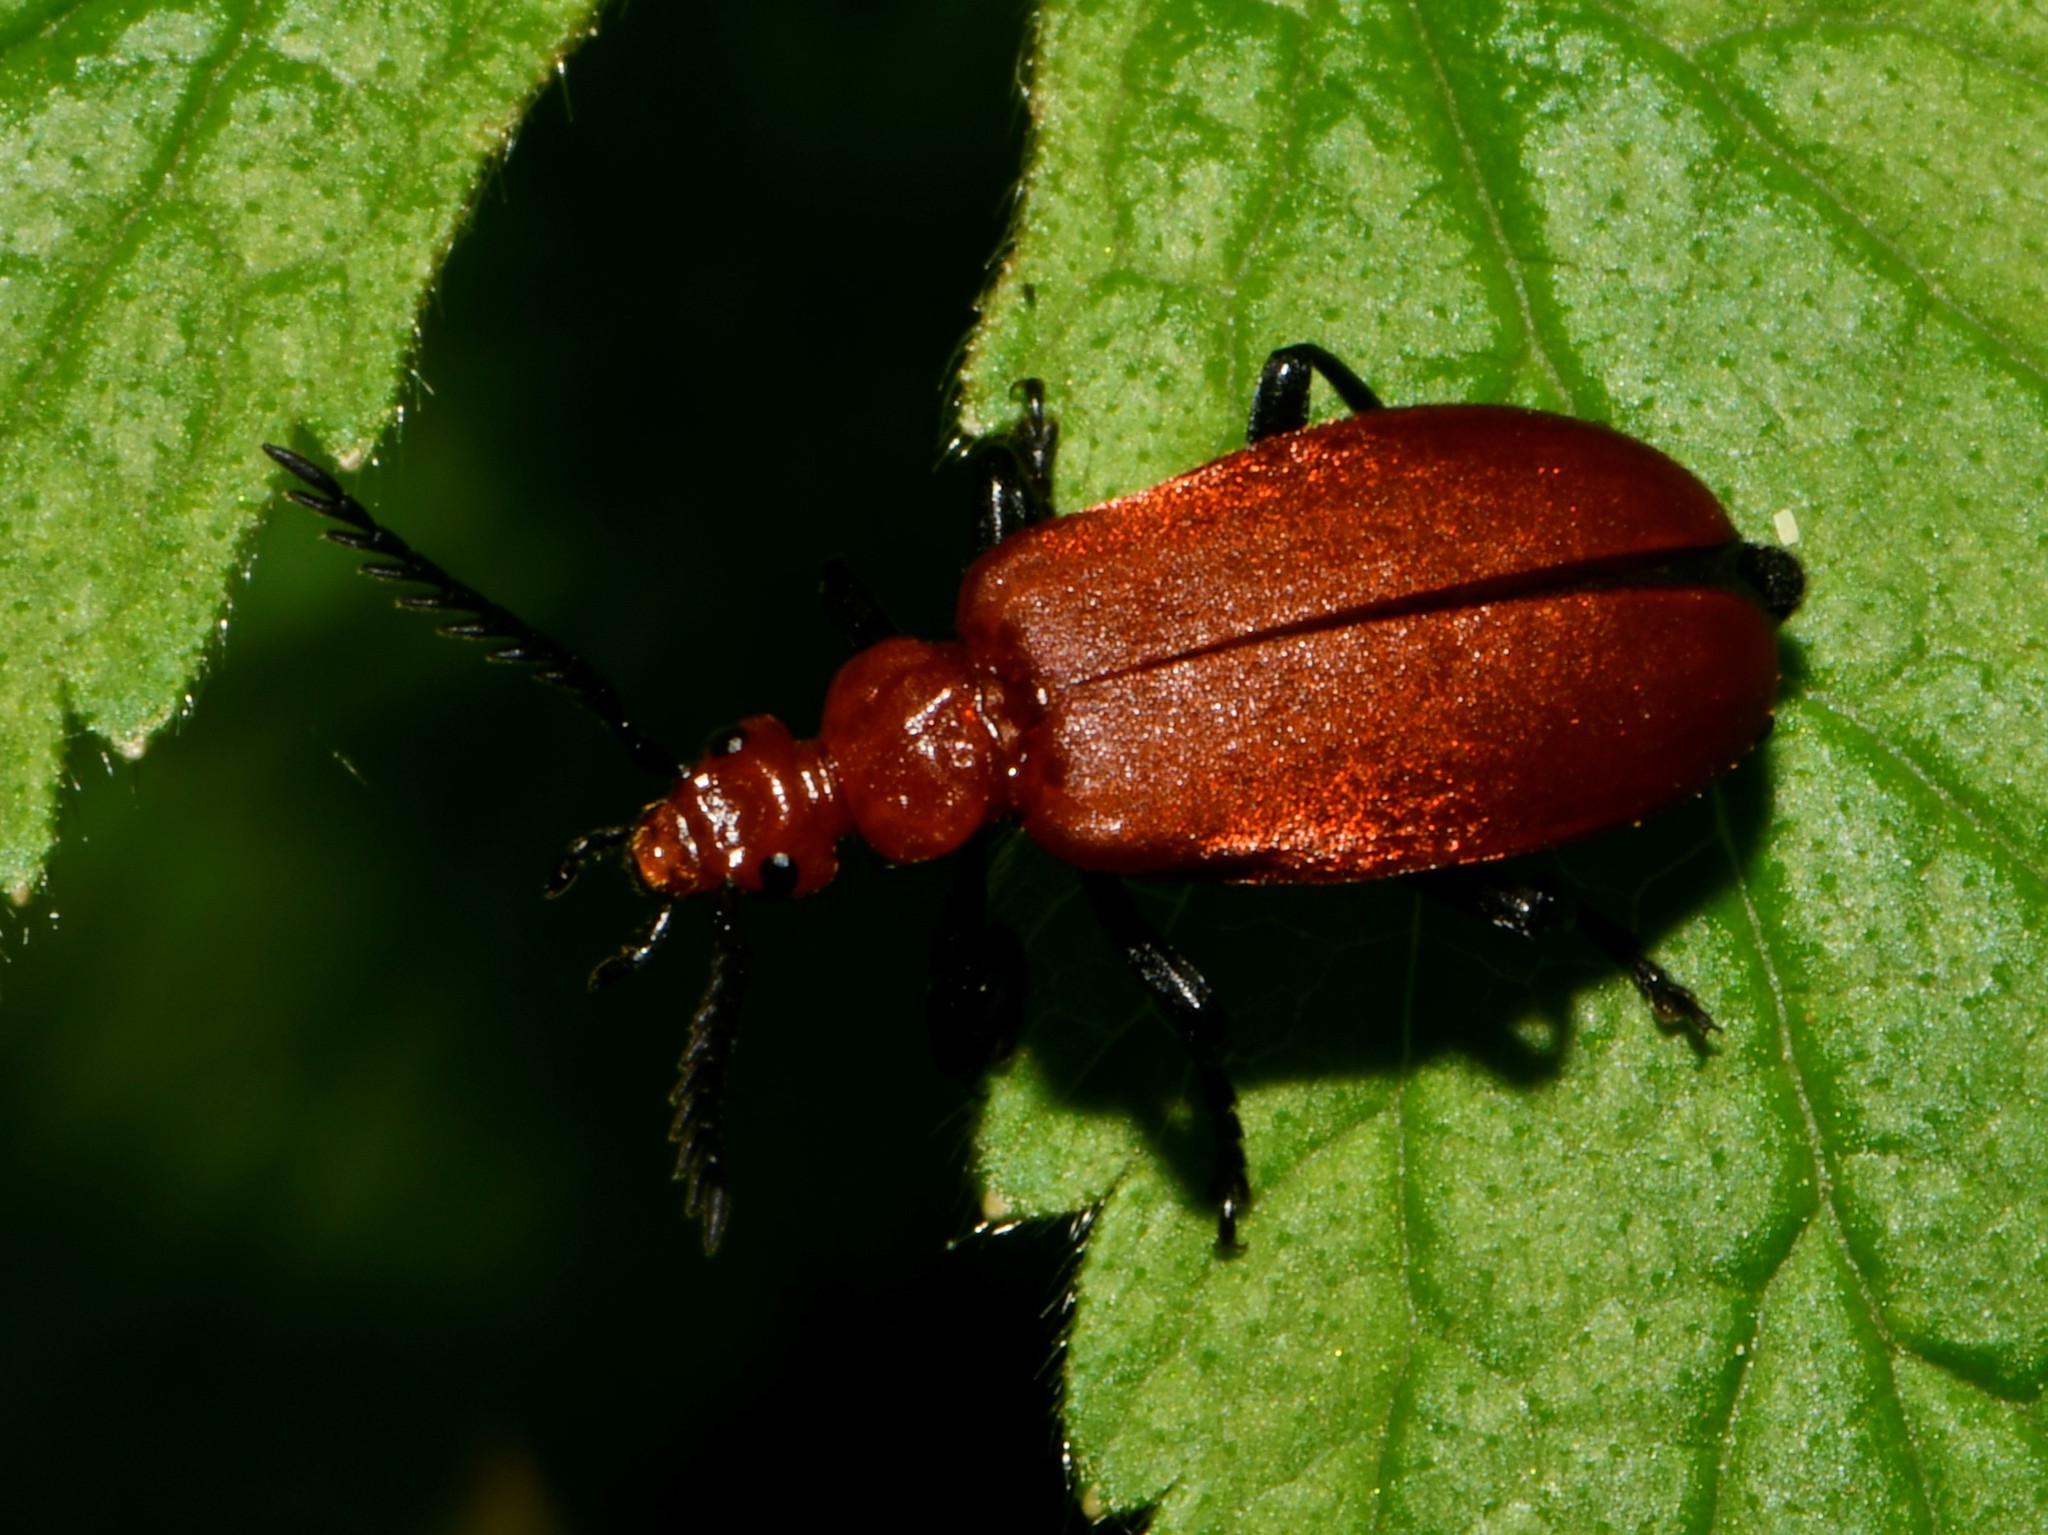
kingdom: Animalia
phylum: Arthropoda
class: Insecta
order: Coleoptera
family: Pyrochroidae
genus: Pyrochroa
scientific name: Pyrochroa serraticornis
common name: Red-headed cardinal beetle
